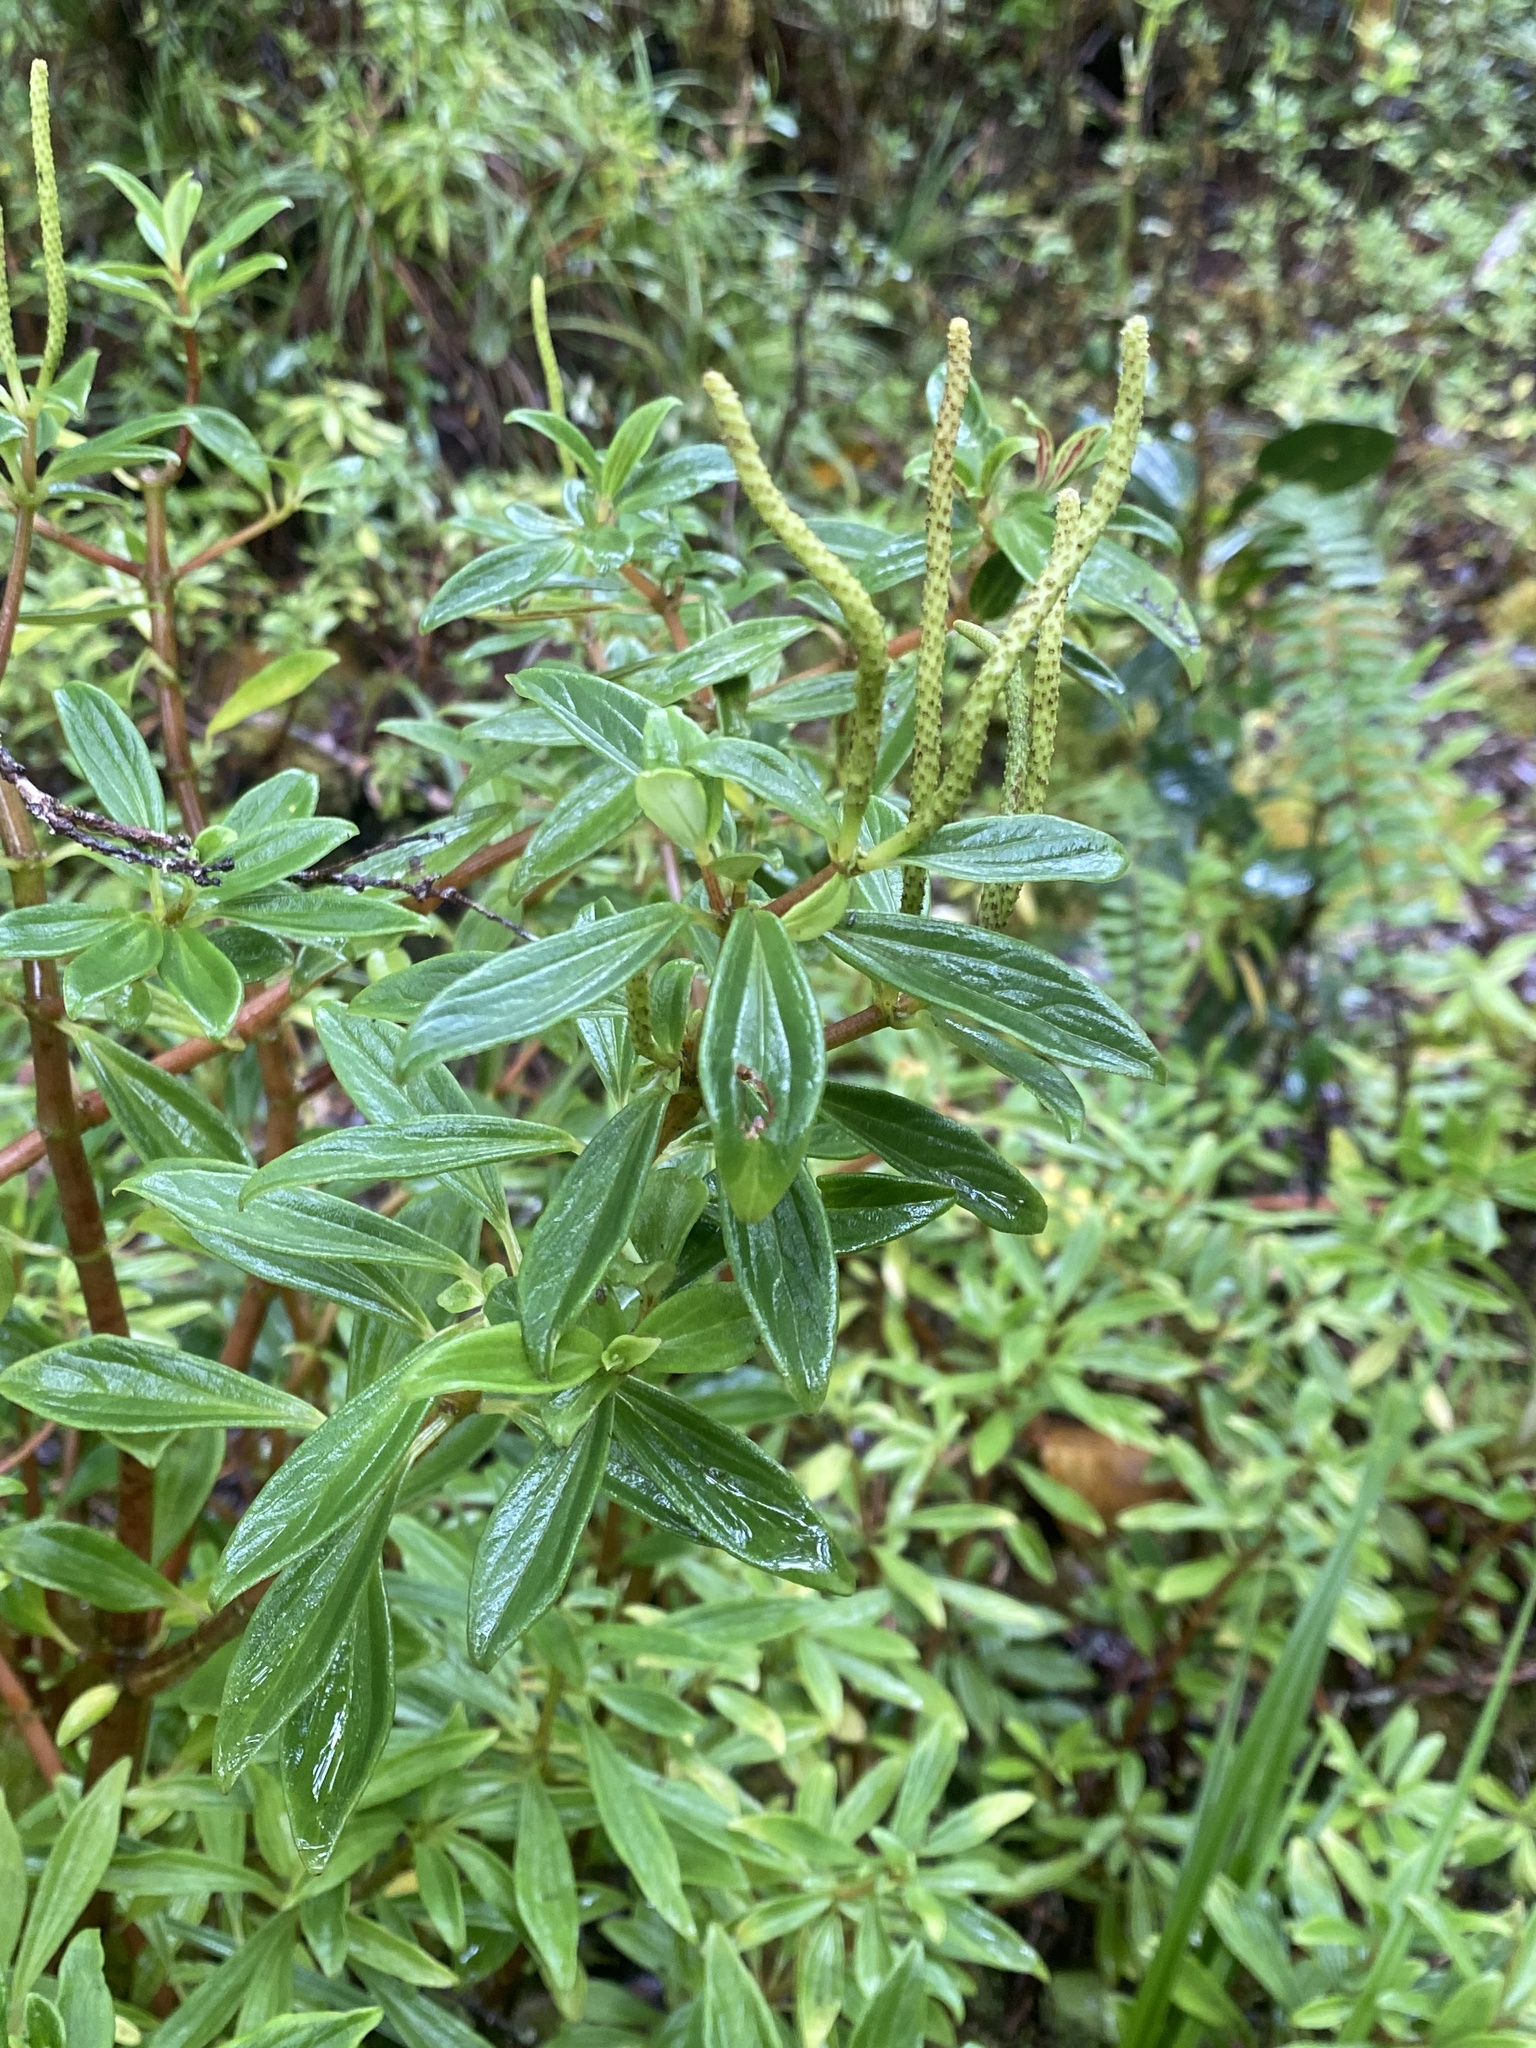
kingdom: Plantae
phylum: Tracheophyta
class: Magnoliopsida
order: Piperales
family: Piperaceae
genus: Peperomia
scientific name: Peperomia hesperomannii
